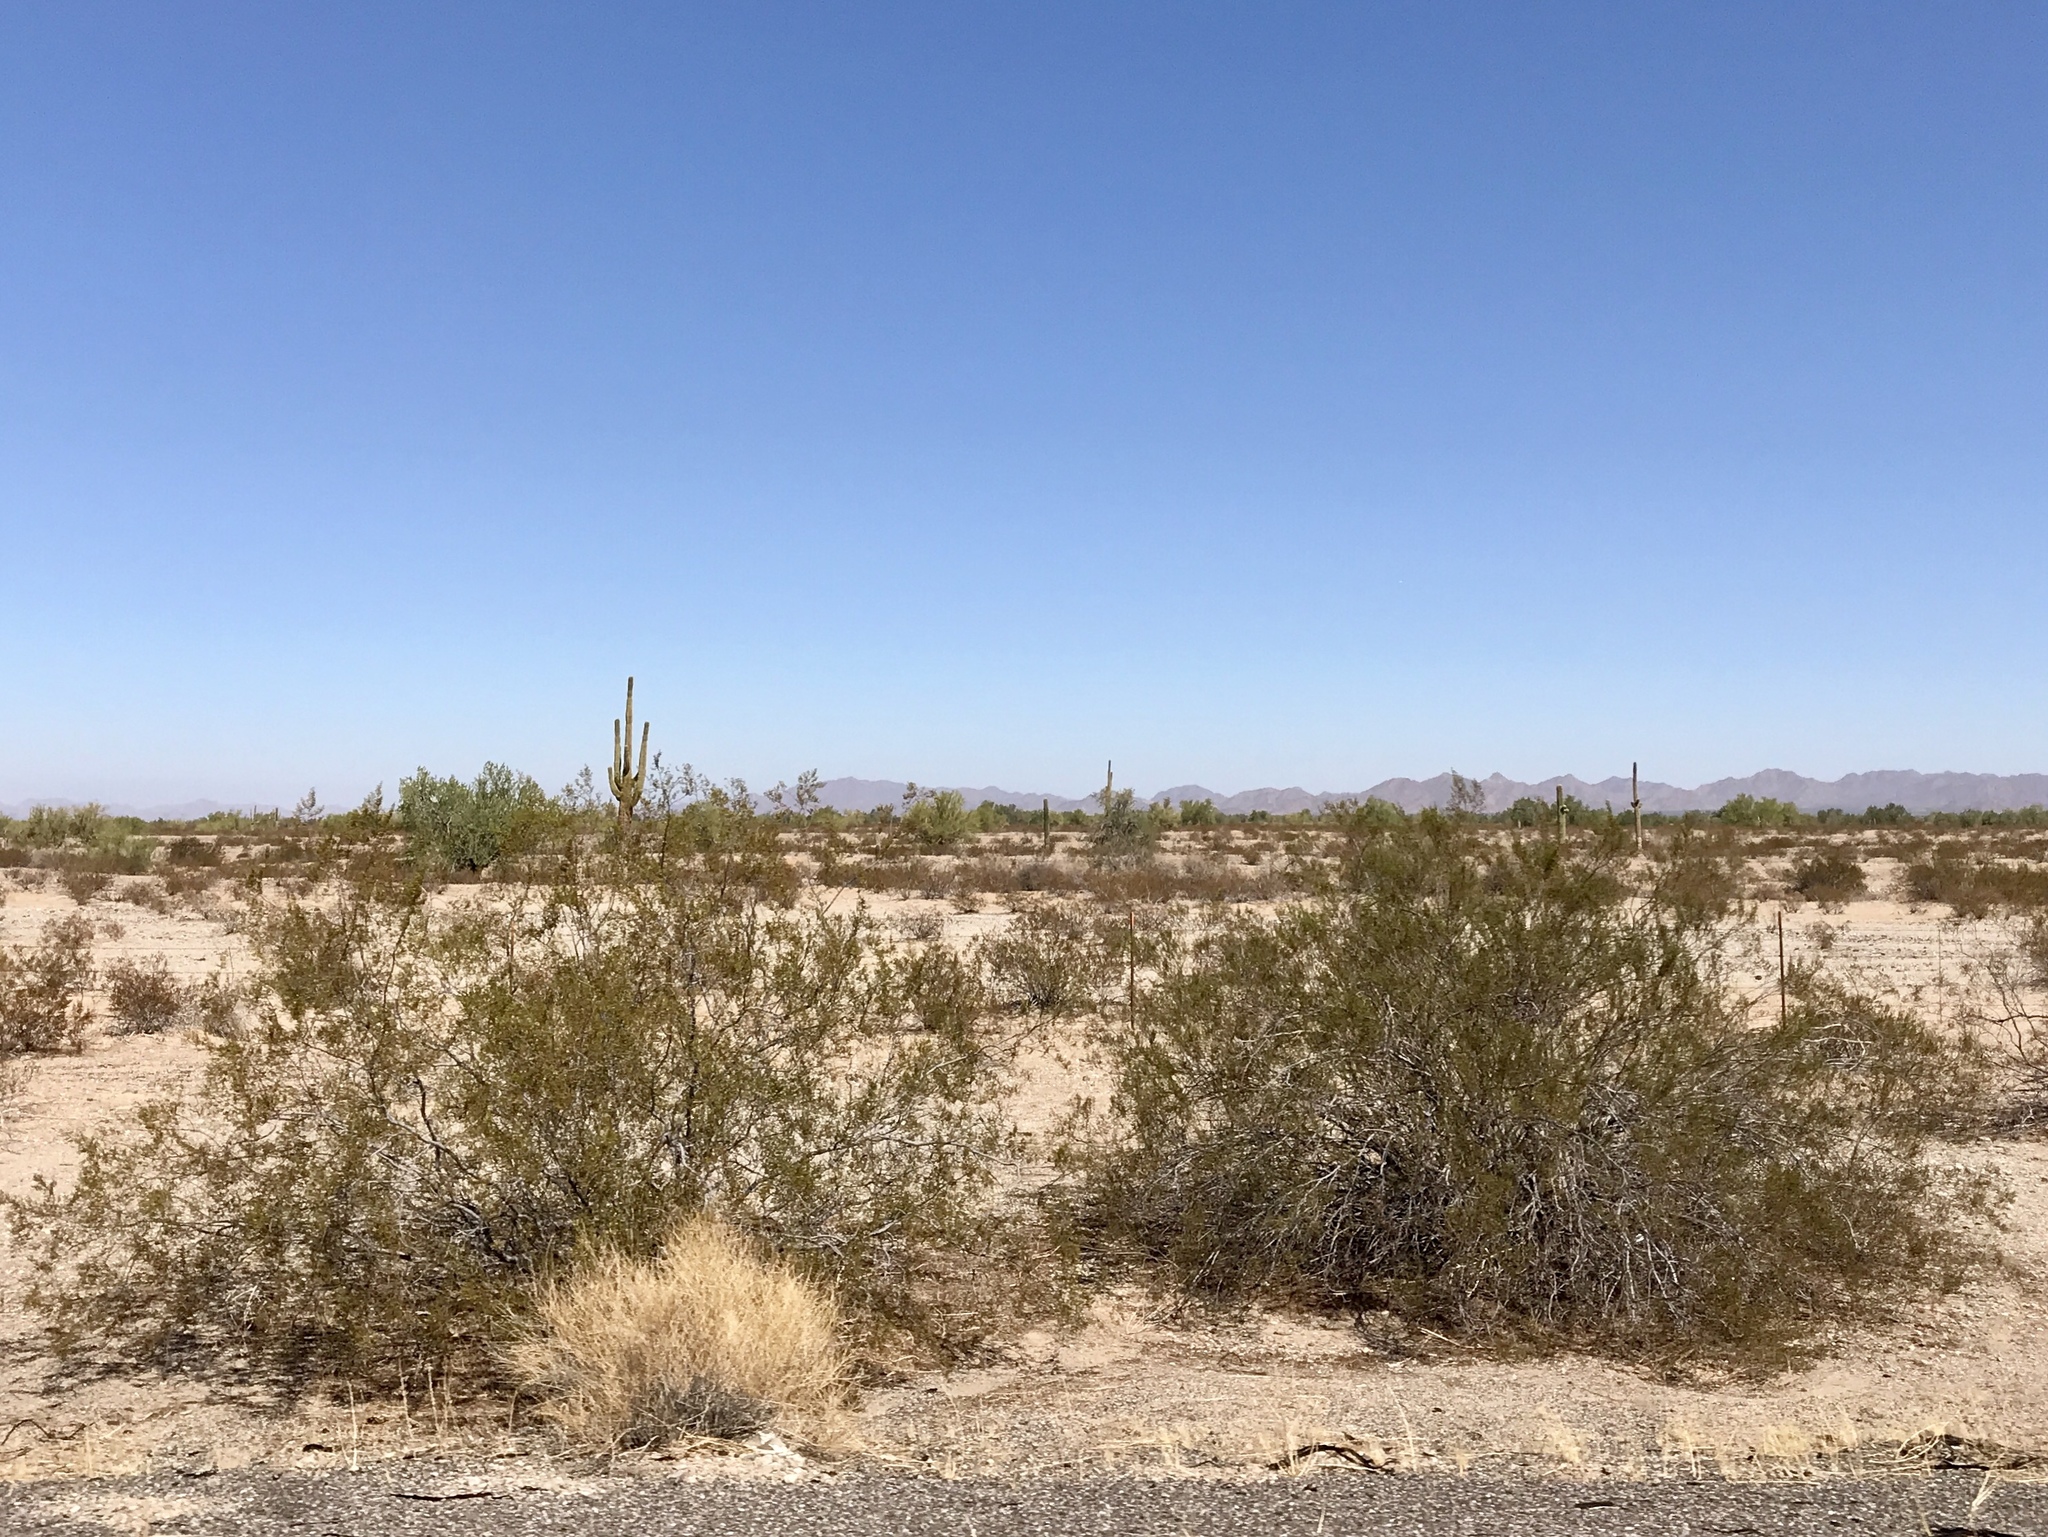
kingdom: Plantae
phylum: Tracheophyta
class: Magnoliopsida
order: Zygophyllales
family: Zygophyllaceae
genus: Larrea
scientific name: Larrea tridentata
